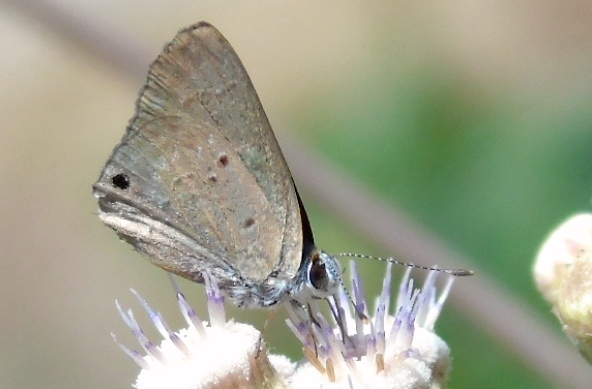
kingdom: Animalia
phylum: Arthropoda
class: Insecta
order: Lepidoptera
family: Lycaenidae
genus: Callicista
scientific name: Callicista columella
